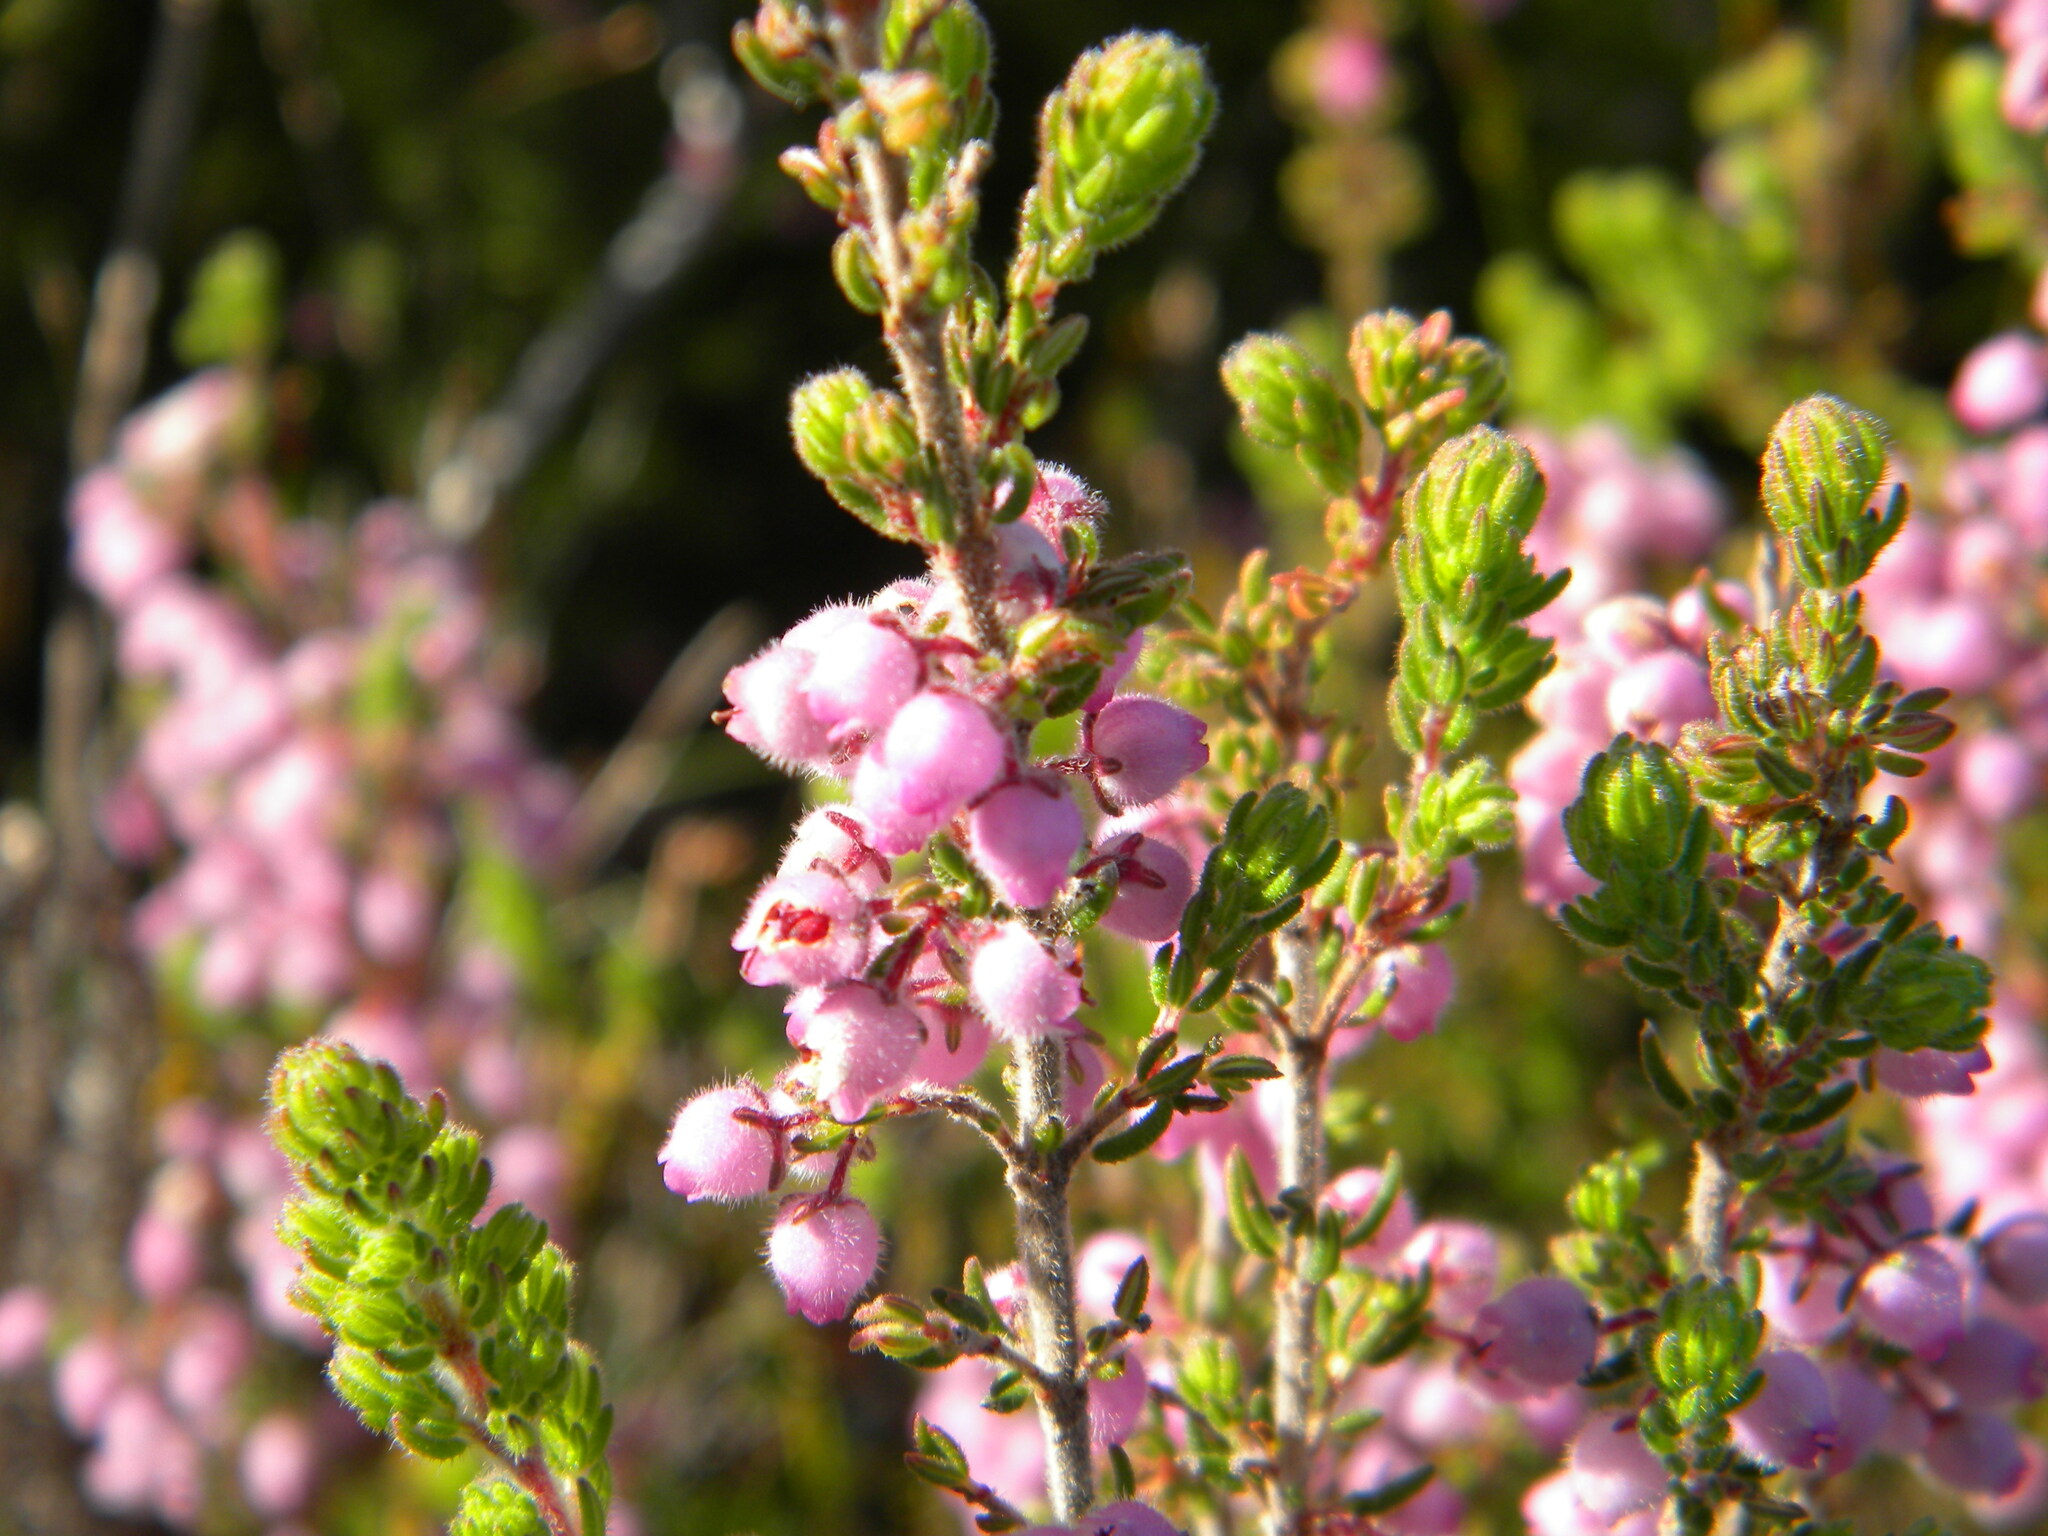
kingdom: Plantae
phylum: Tracheophyta
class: Magnoliopsida
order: Ericales
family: Ericaceae
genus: Erica
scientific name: Erica hirtiflora
